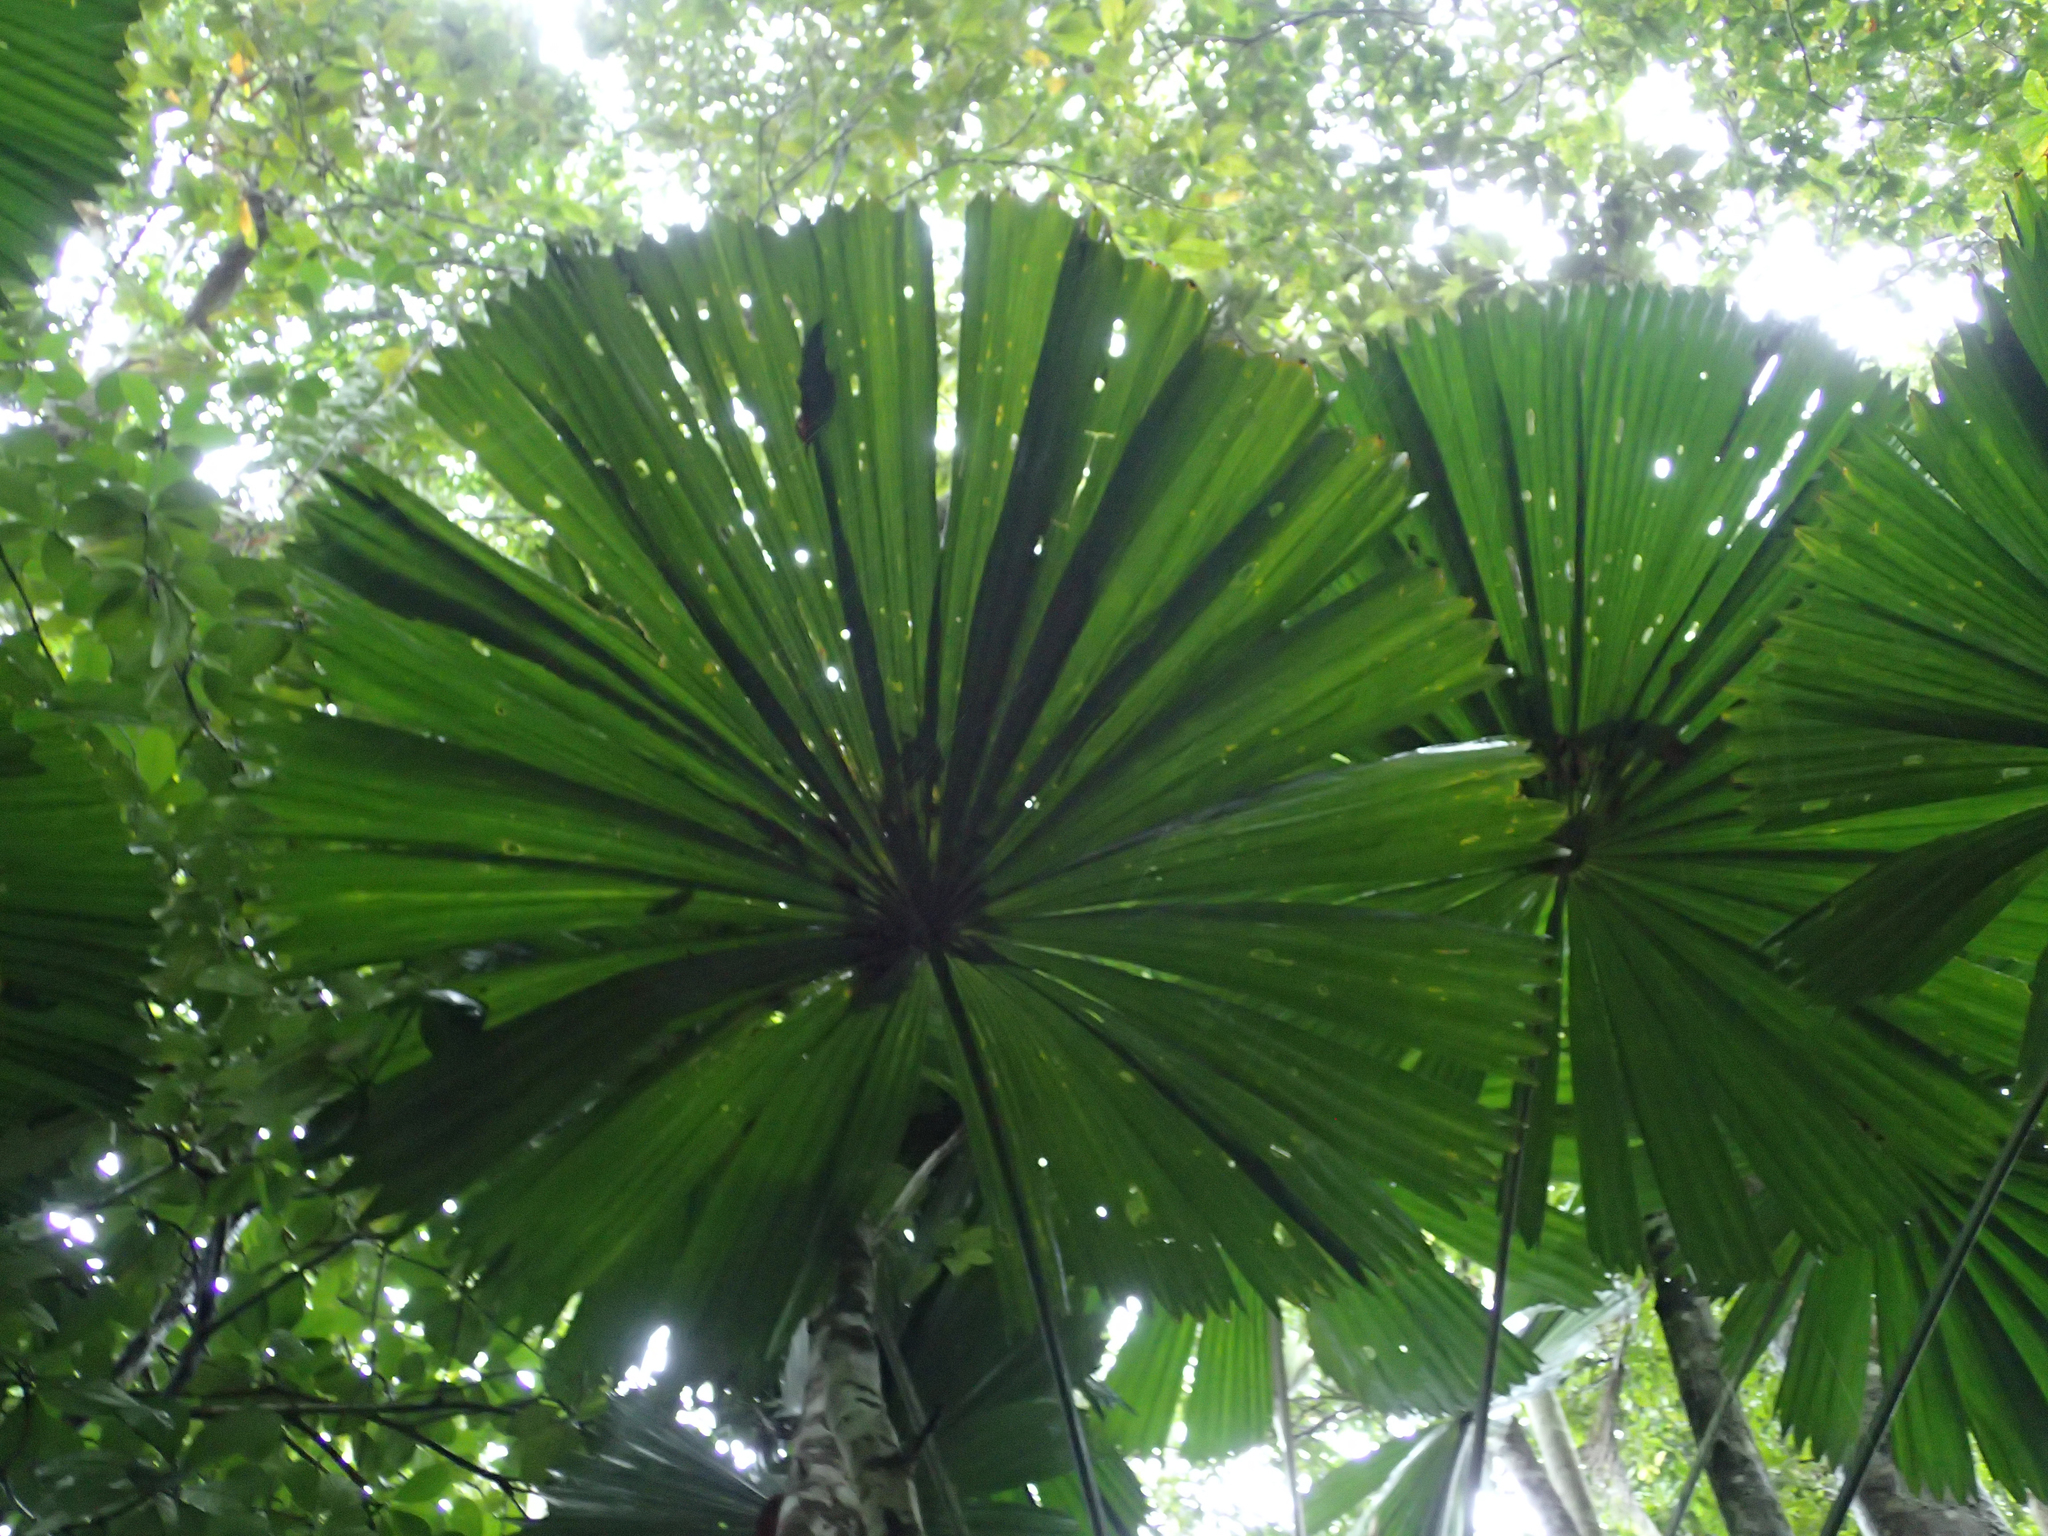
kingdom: Plantae
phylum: Tracheophyta
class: Liliopsida
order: Arecales
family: Arecaceae
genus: Licuala
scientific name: Licuala ramsayi
